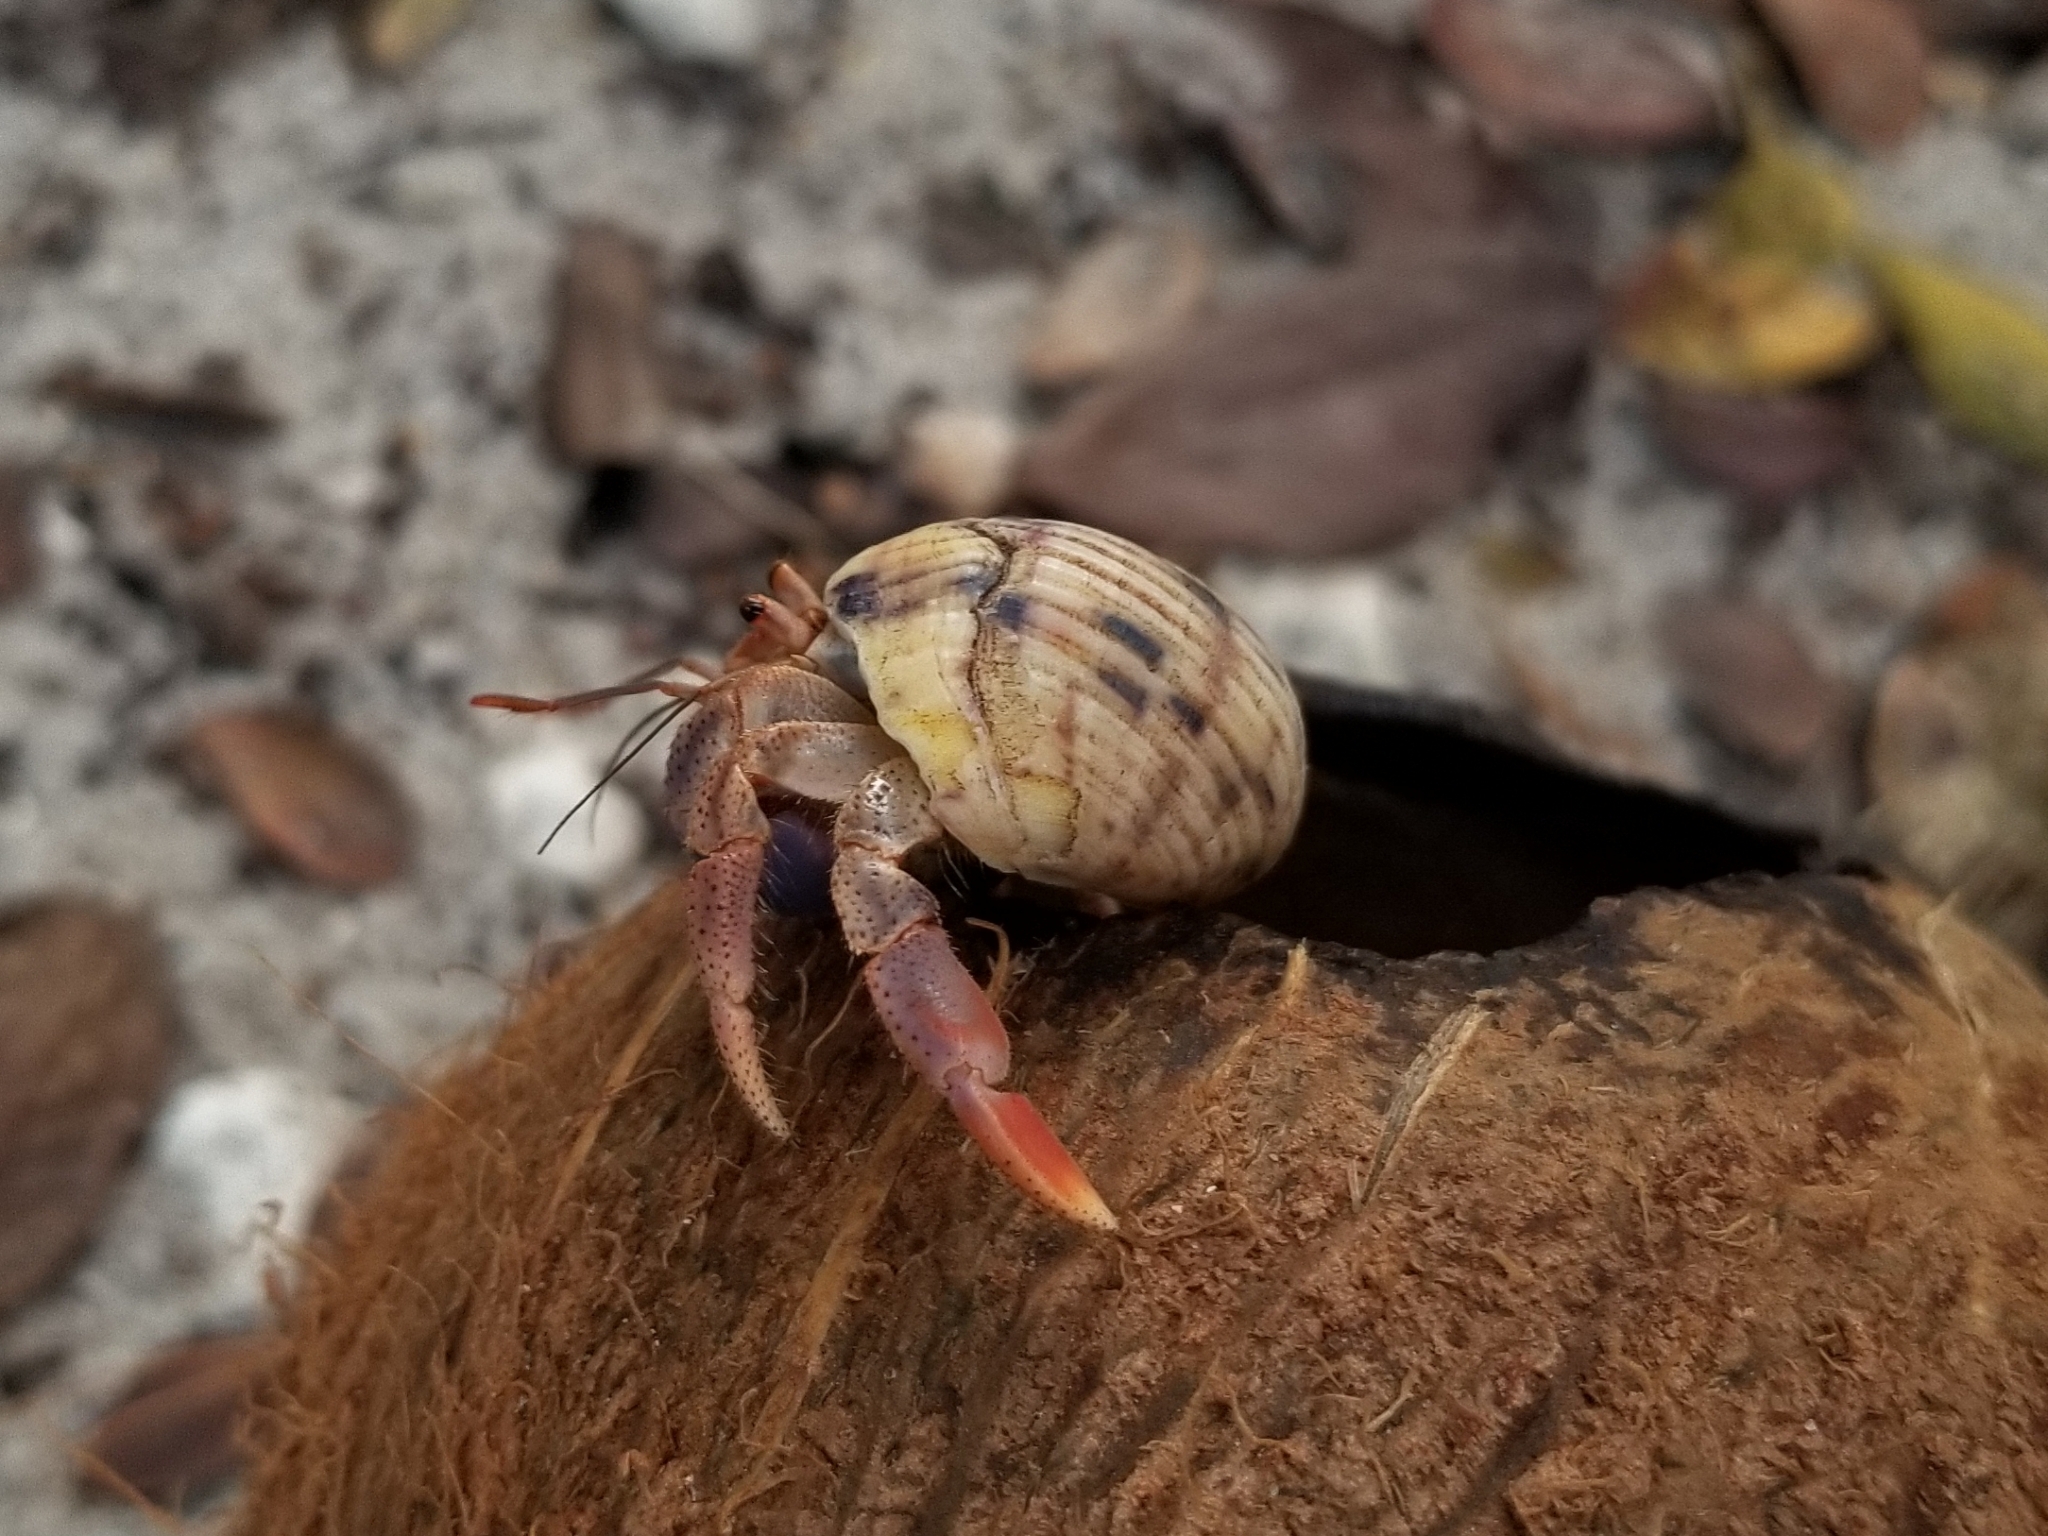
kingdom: Animalia
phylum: Arthropoda
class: Malacostraca
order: Decapoda
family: Coenobitidae
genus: Coenobita
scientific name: Coenobita clypeatus
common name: Caribbean hermit crab
